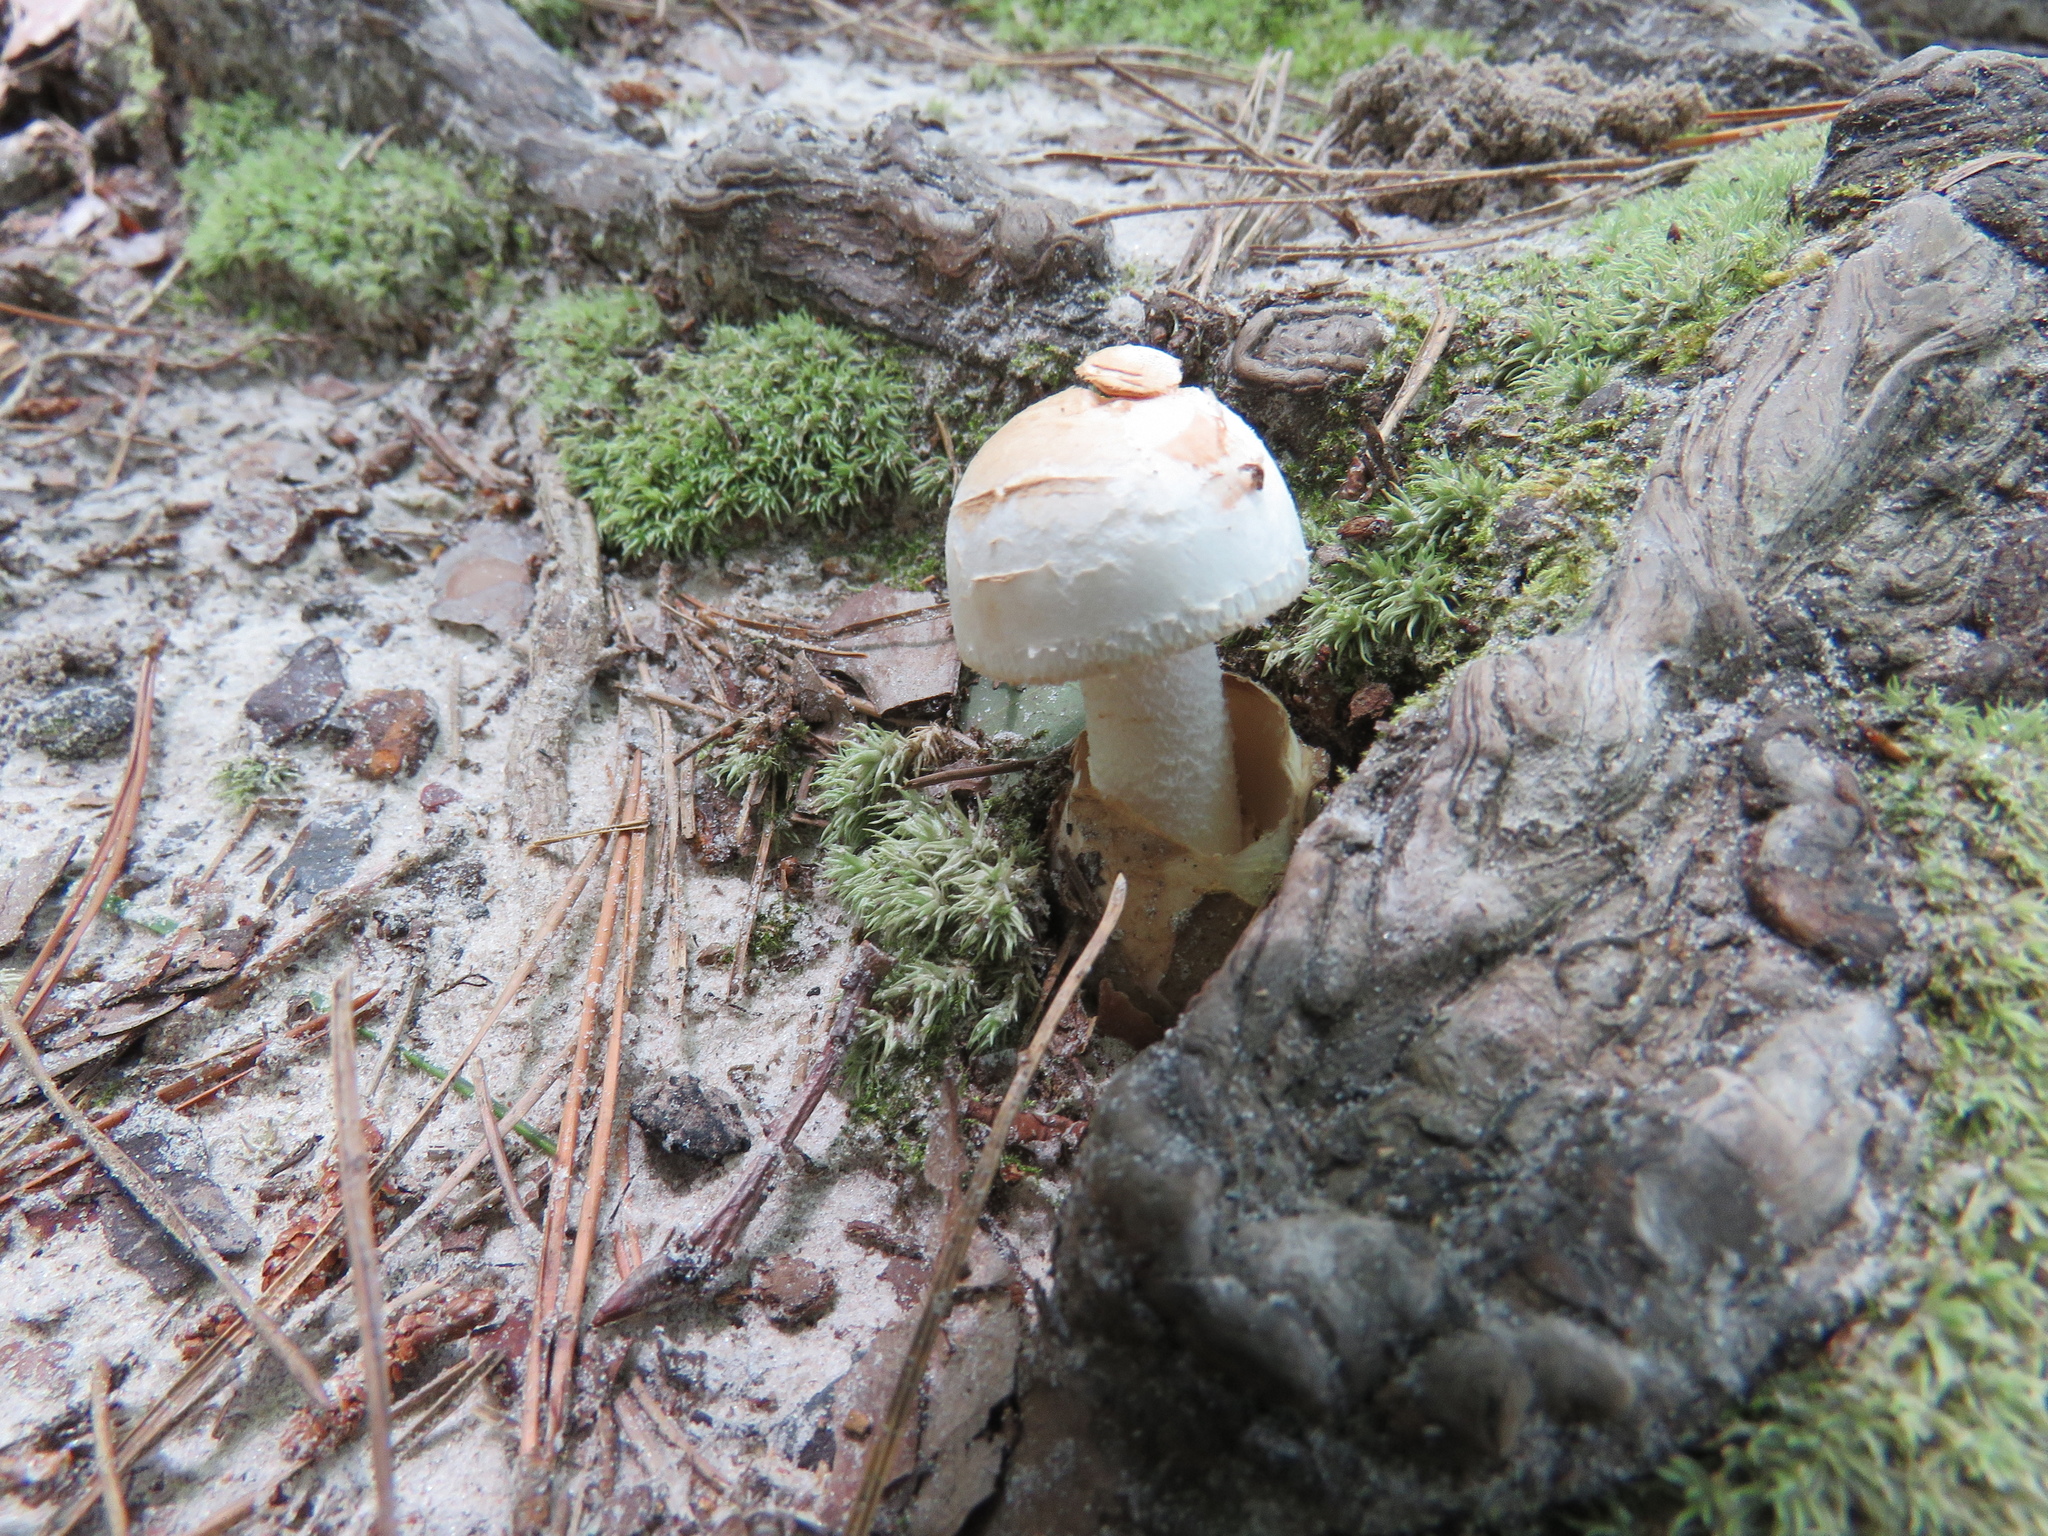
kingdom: Fungi
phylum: Basidiomycota
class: Agaricomycetes
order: Agaricales
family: Amanitaceae
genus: Amanita
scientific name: Amanita volvata
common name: American amidella
